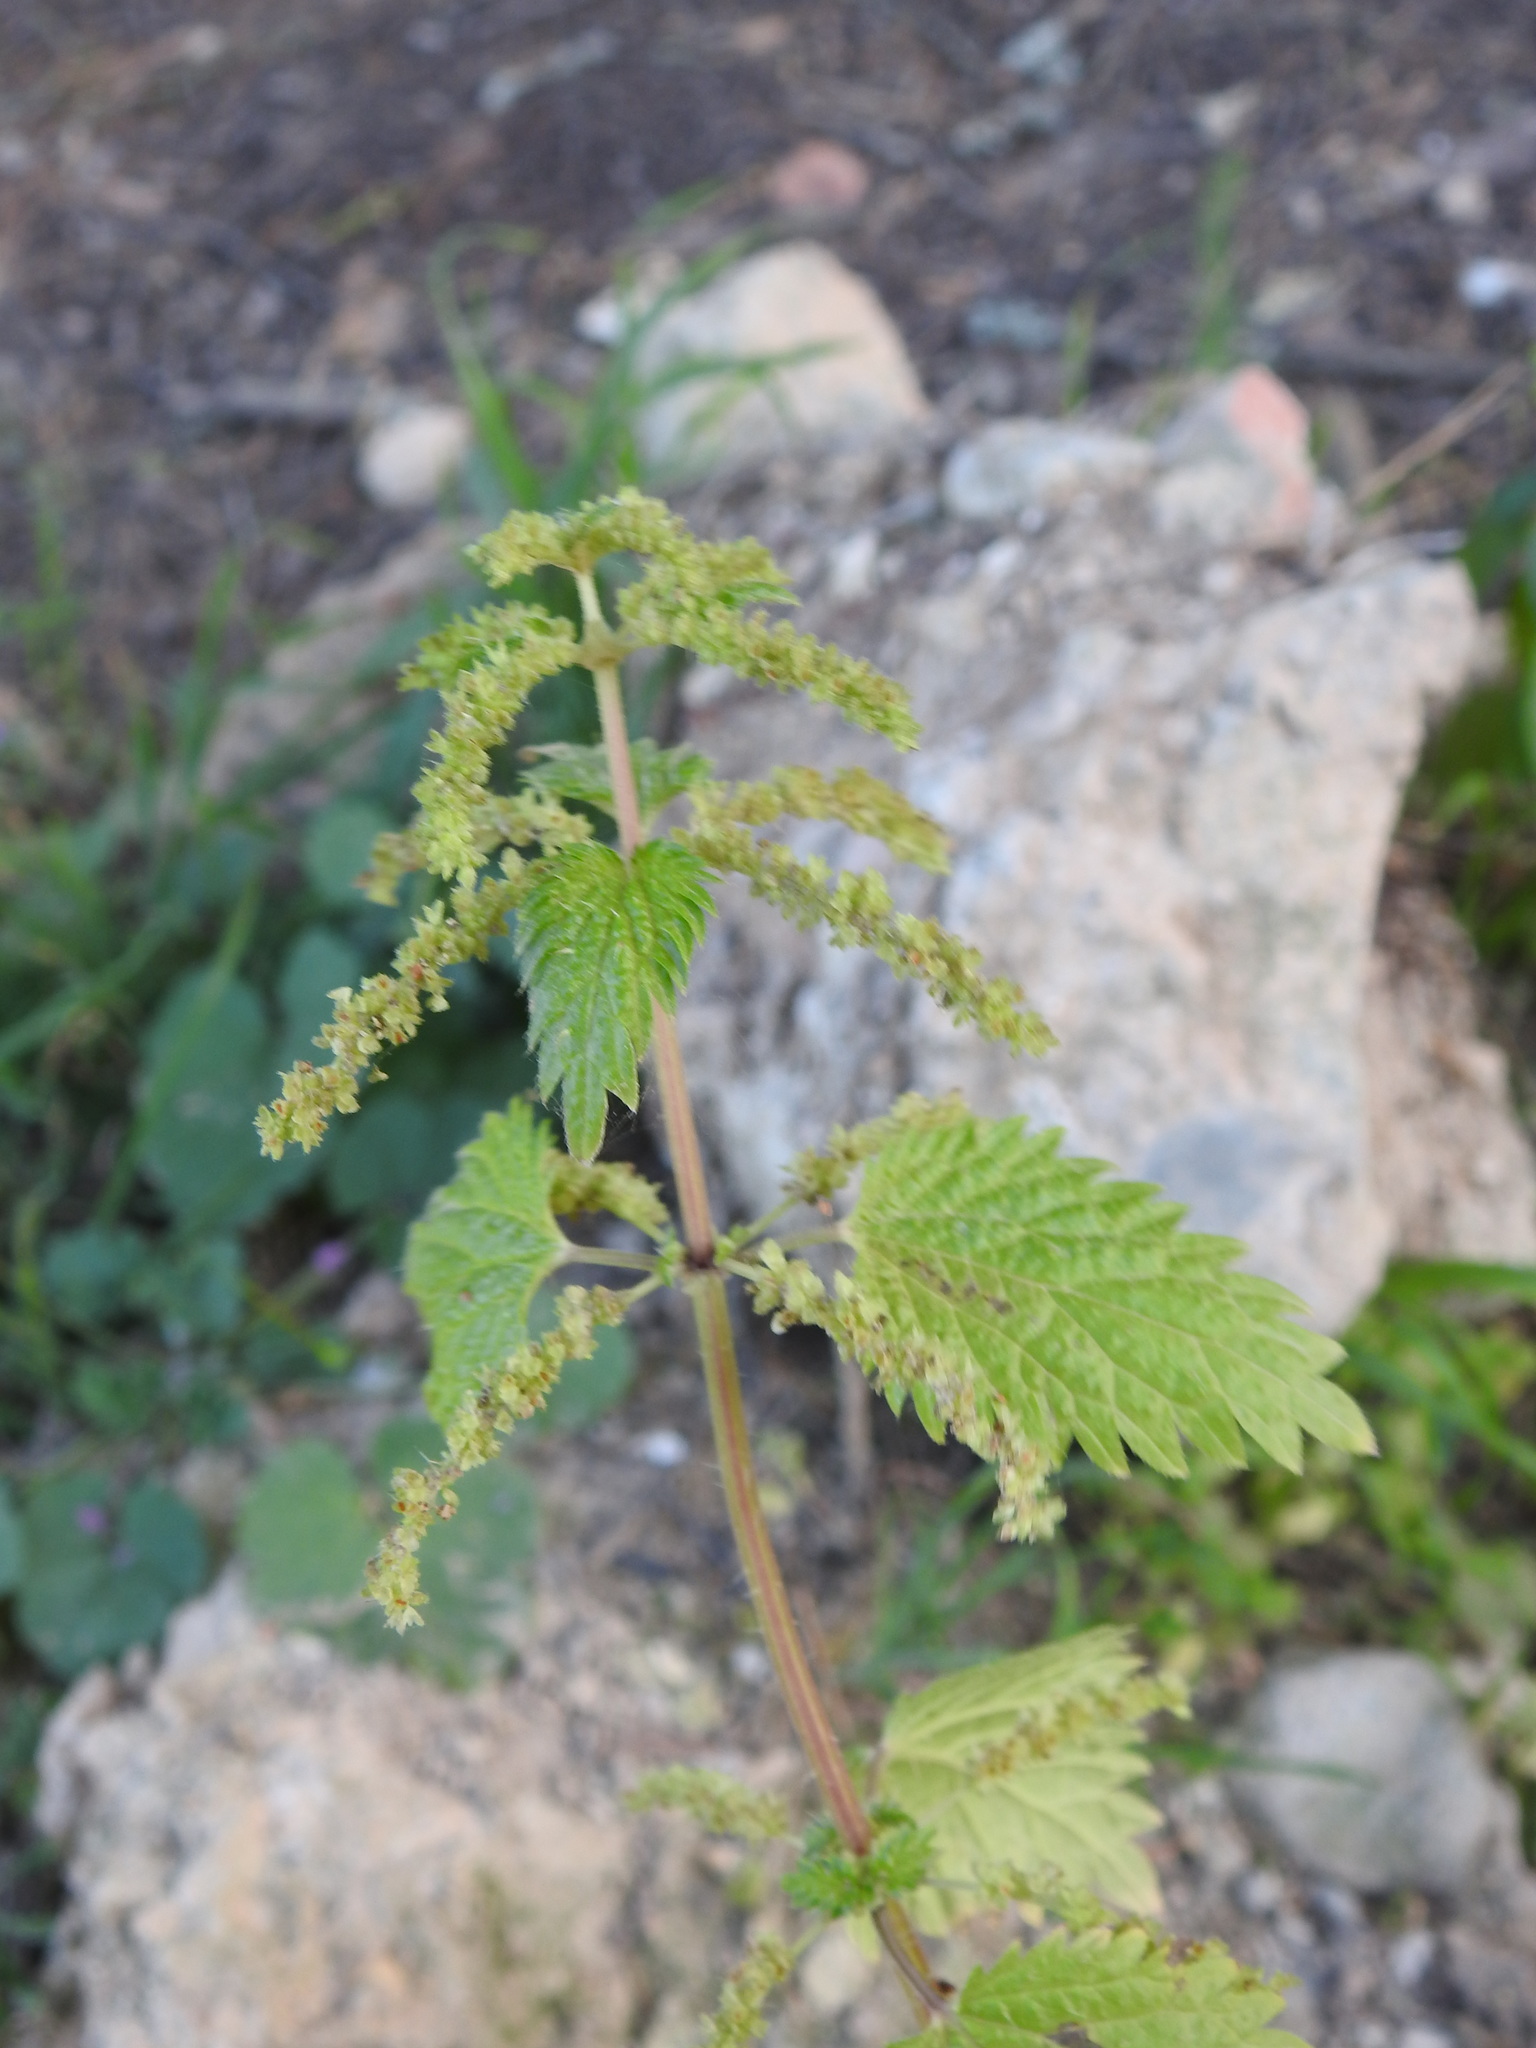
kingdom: Plantae
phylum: Tracheophyta
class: Magnoliopsida
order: Rosales
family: Urticaceae
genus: Urtica
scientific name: Urtica membranacea
